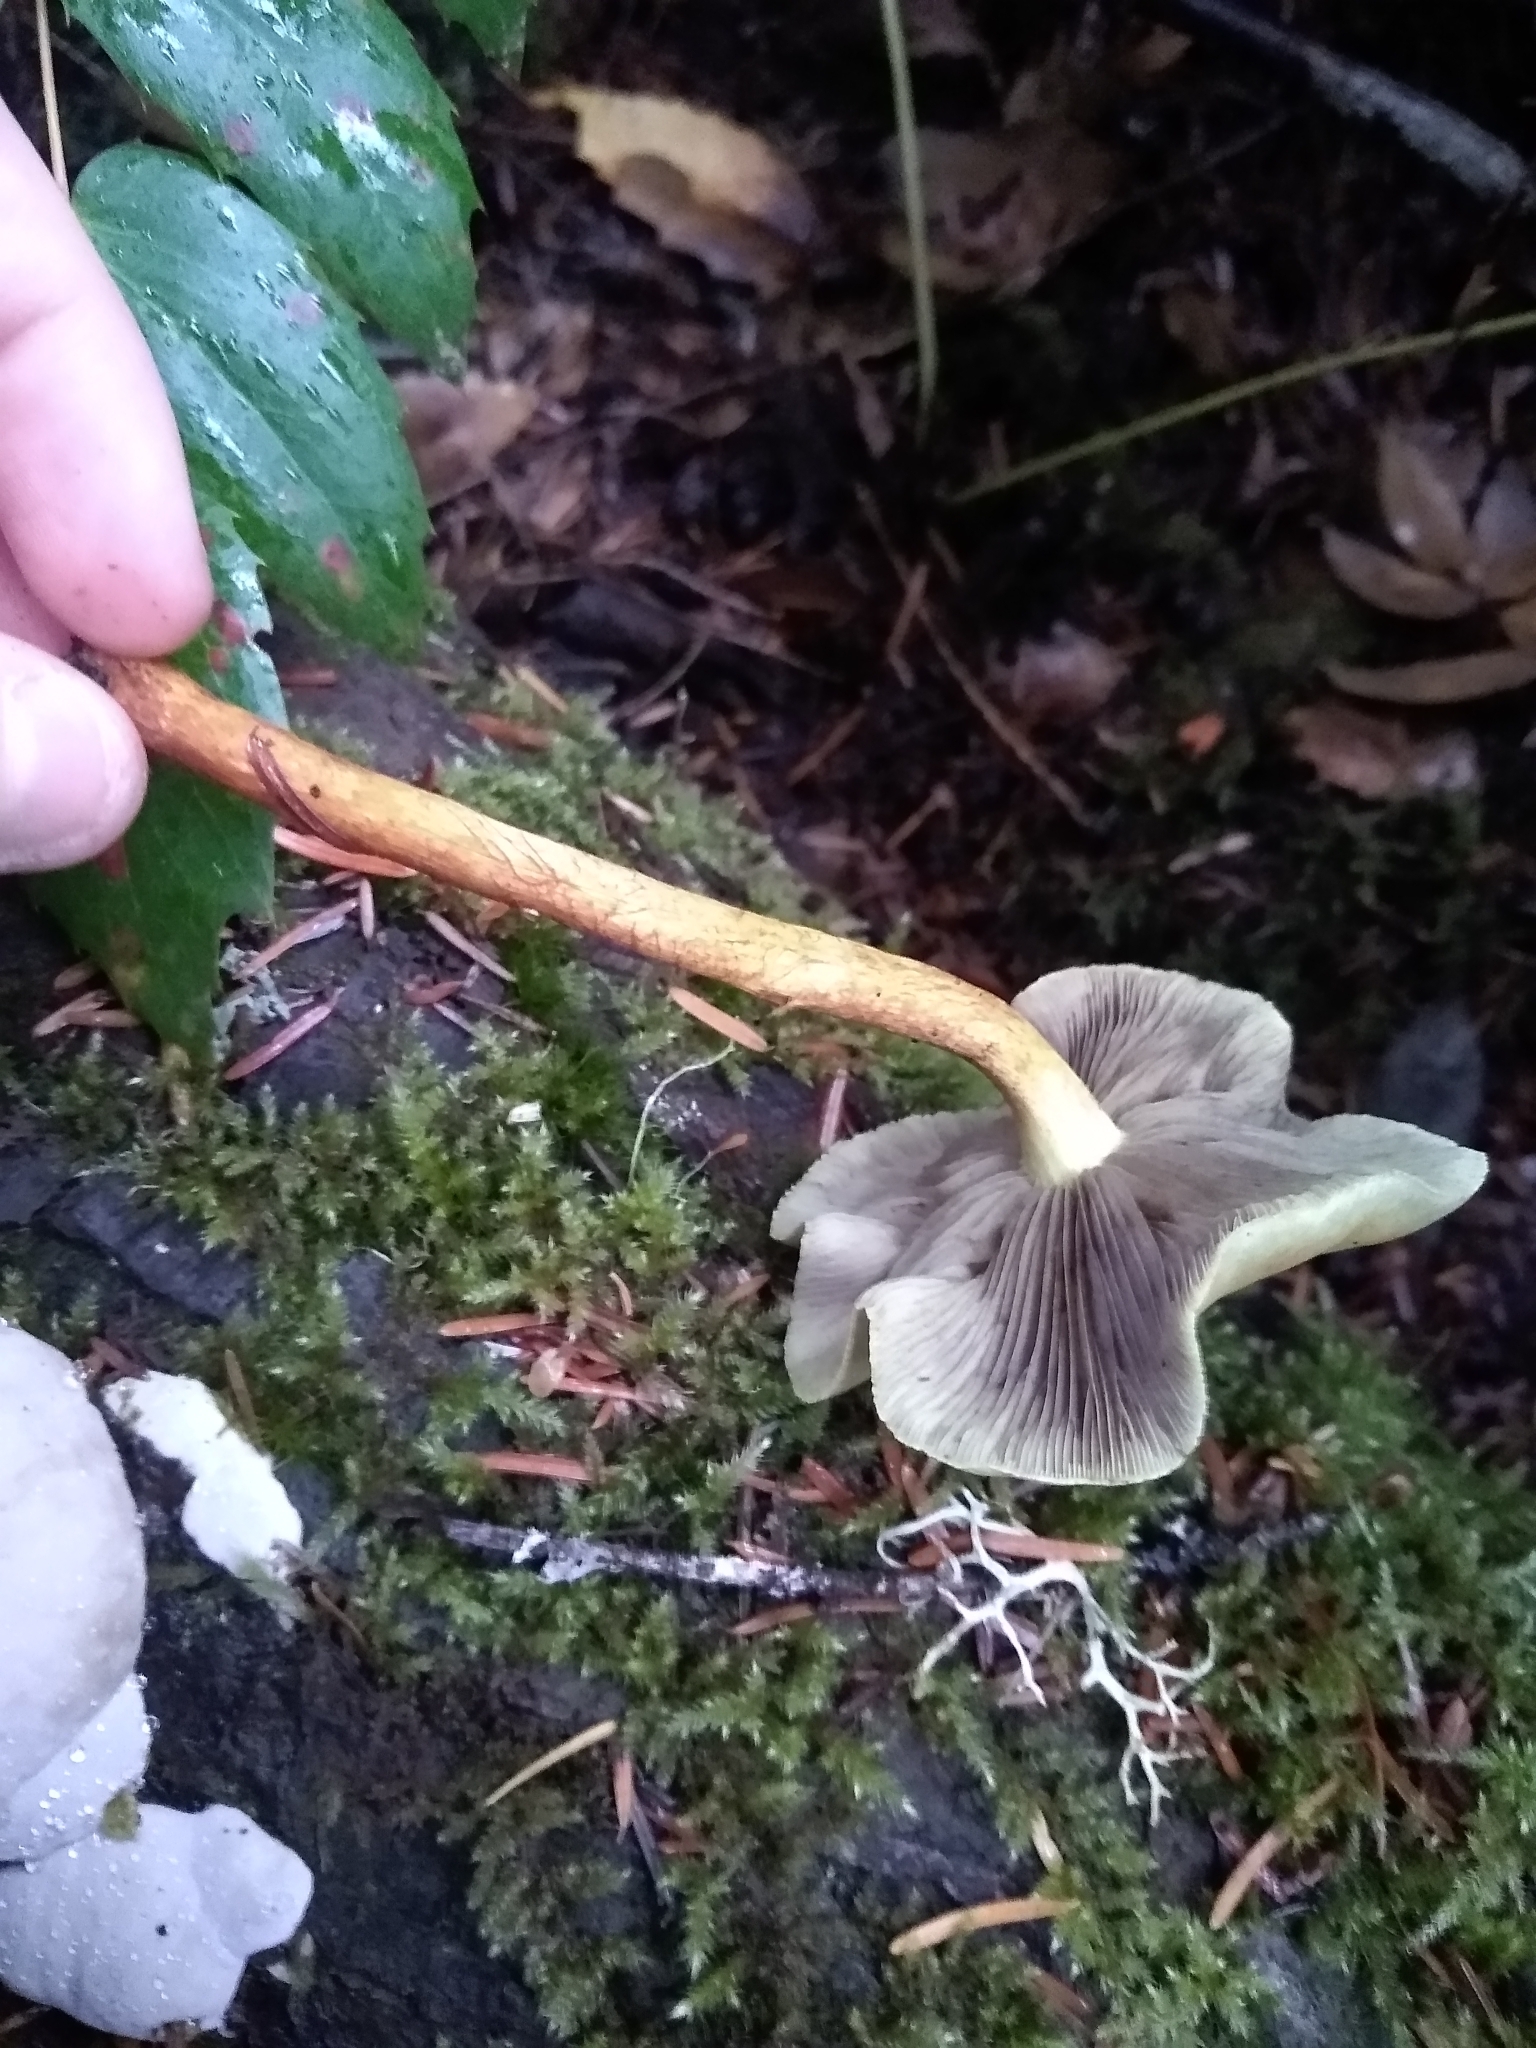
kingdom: Fungi
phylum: Basidiomycota
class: Agaricomycetes
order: Agaricales
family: Strophariaceae
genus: Hypholoma
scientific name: Hypholoma capnoides
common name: Conifer tuft
